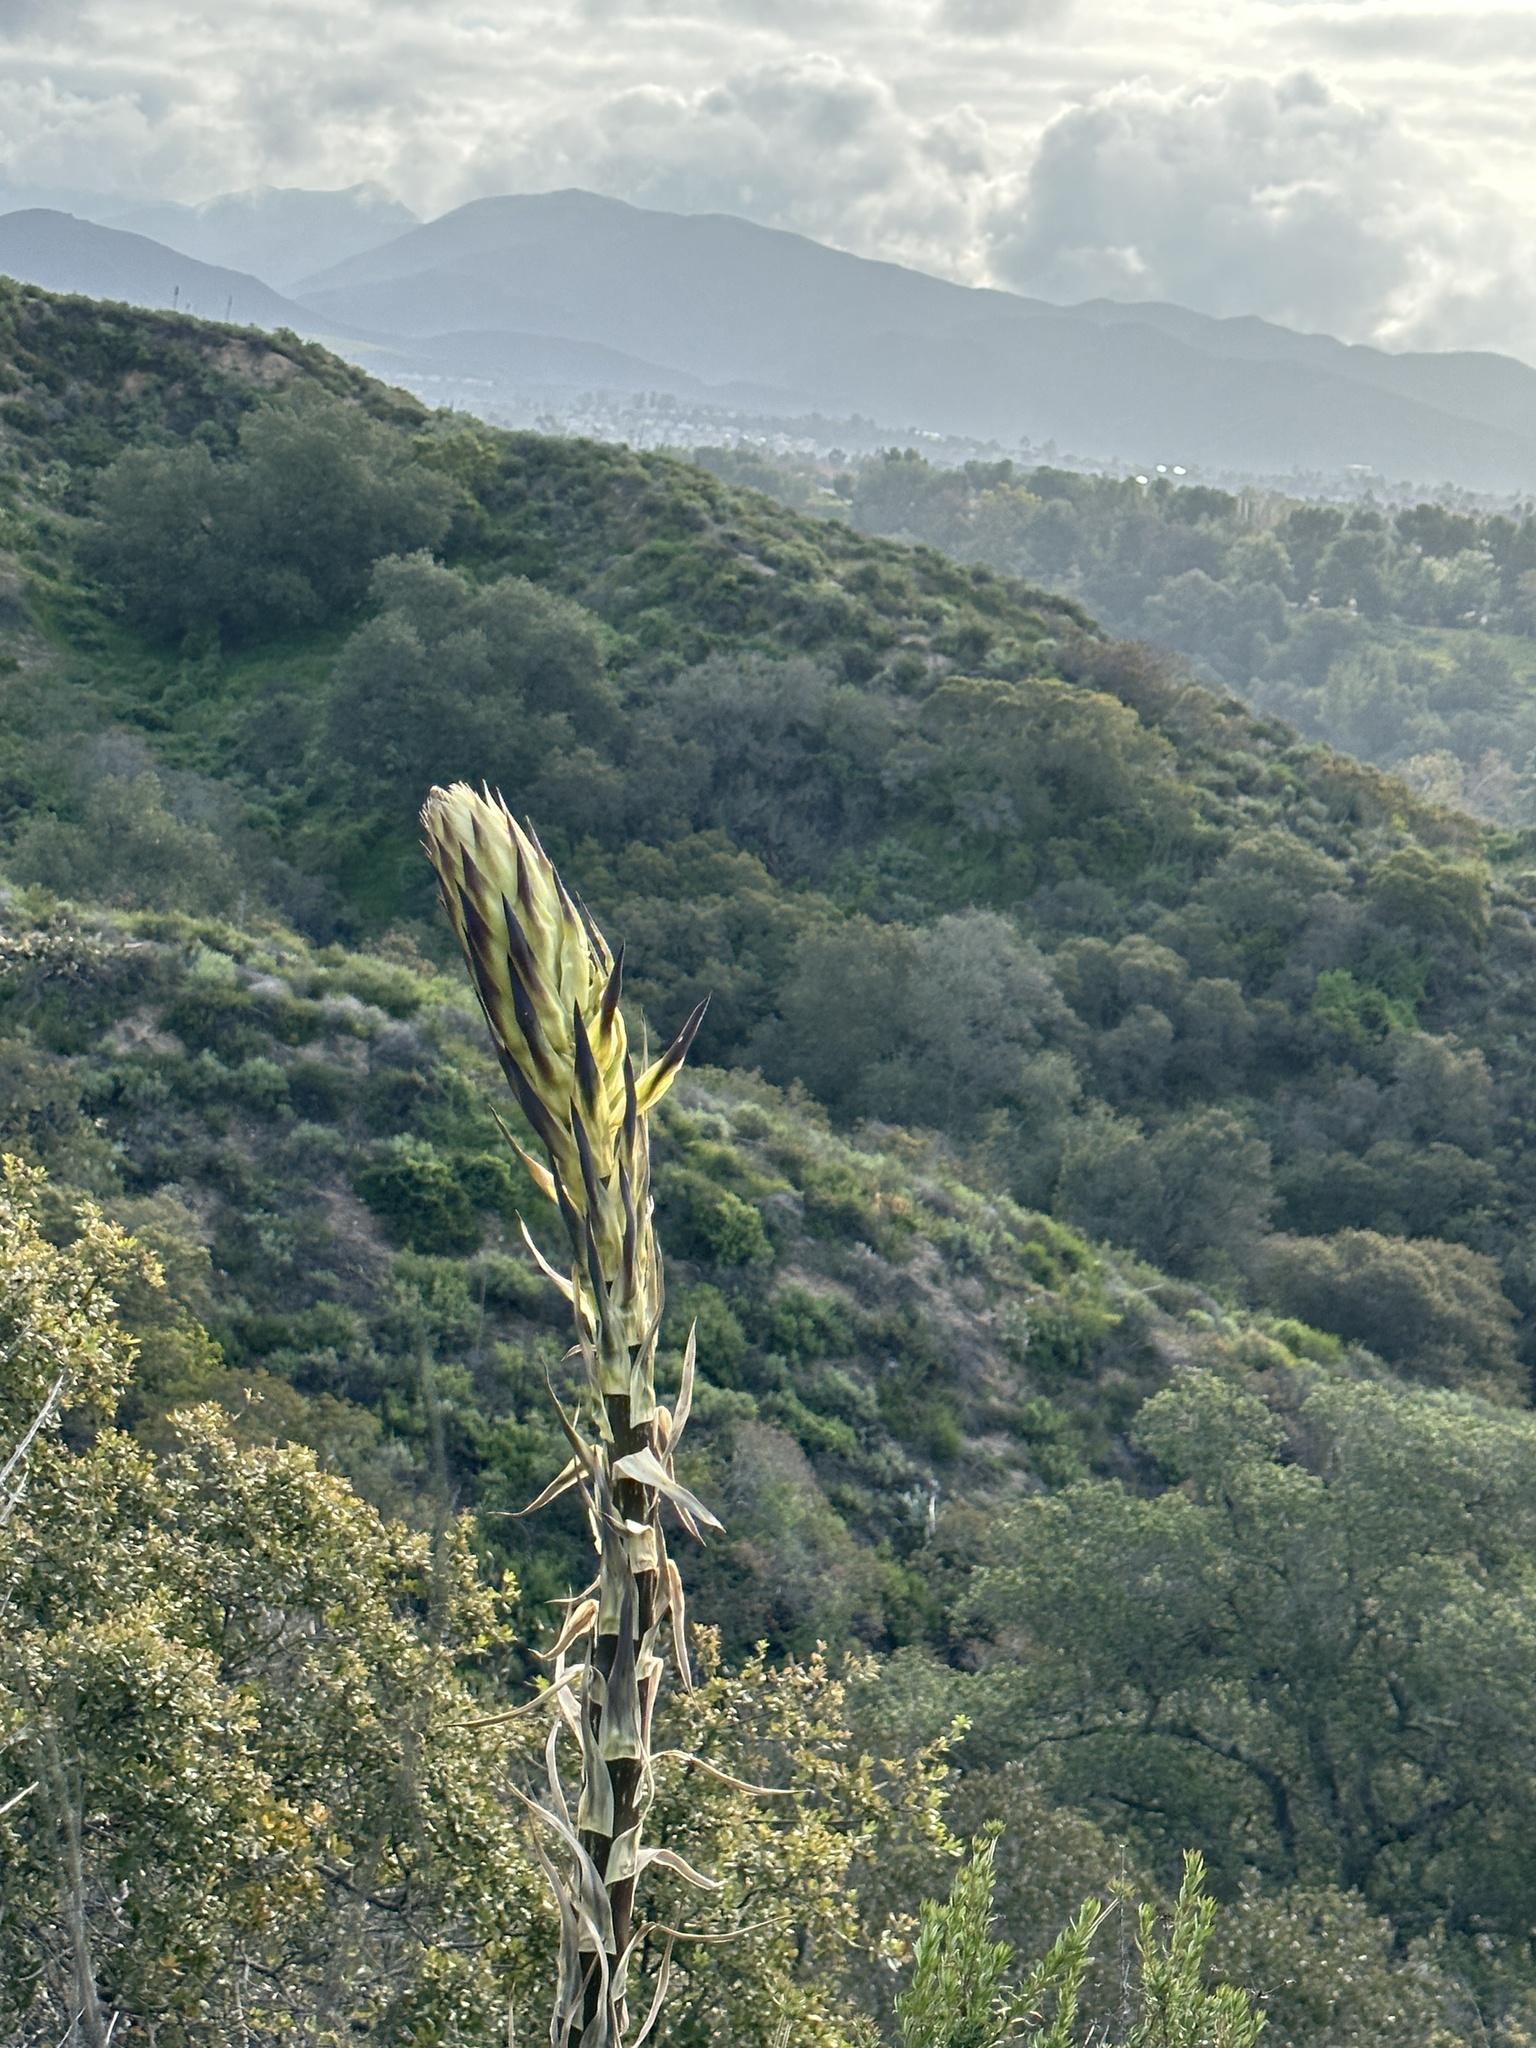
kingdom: Plantae
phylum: Tracheophyta
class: Liliopsida
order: Asparagales
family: Asparagaceae
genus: Hesperoyucca
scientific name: Hesperoyucca whipplei
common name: Our lord's-candle
